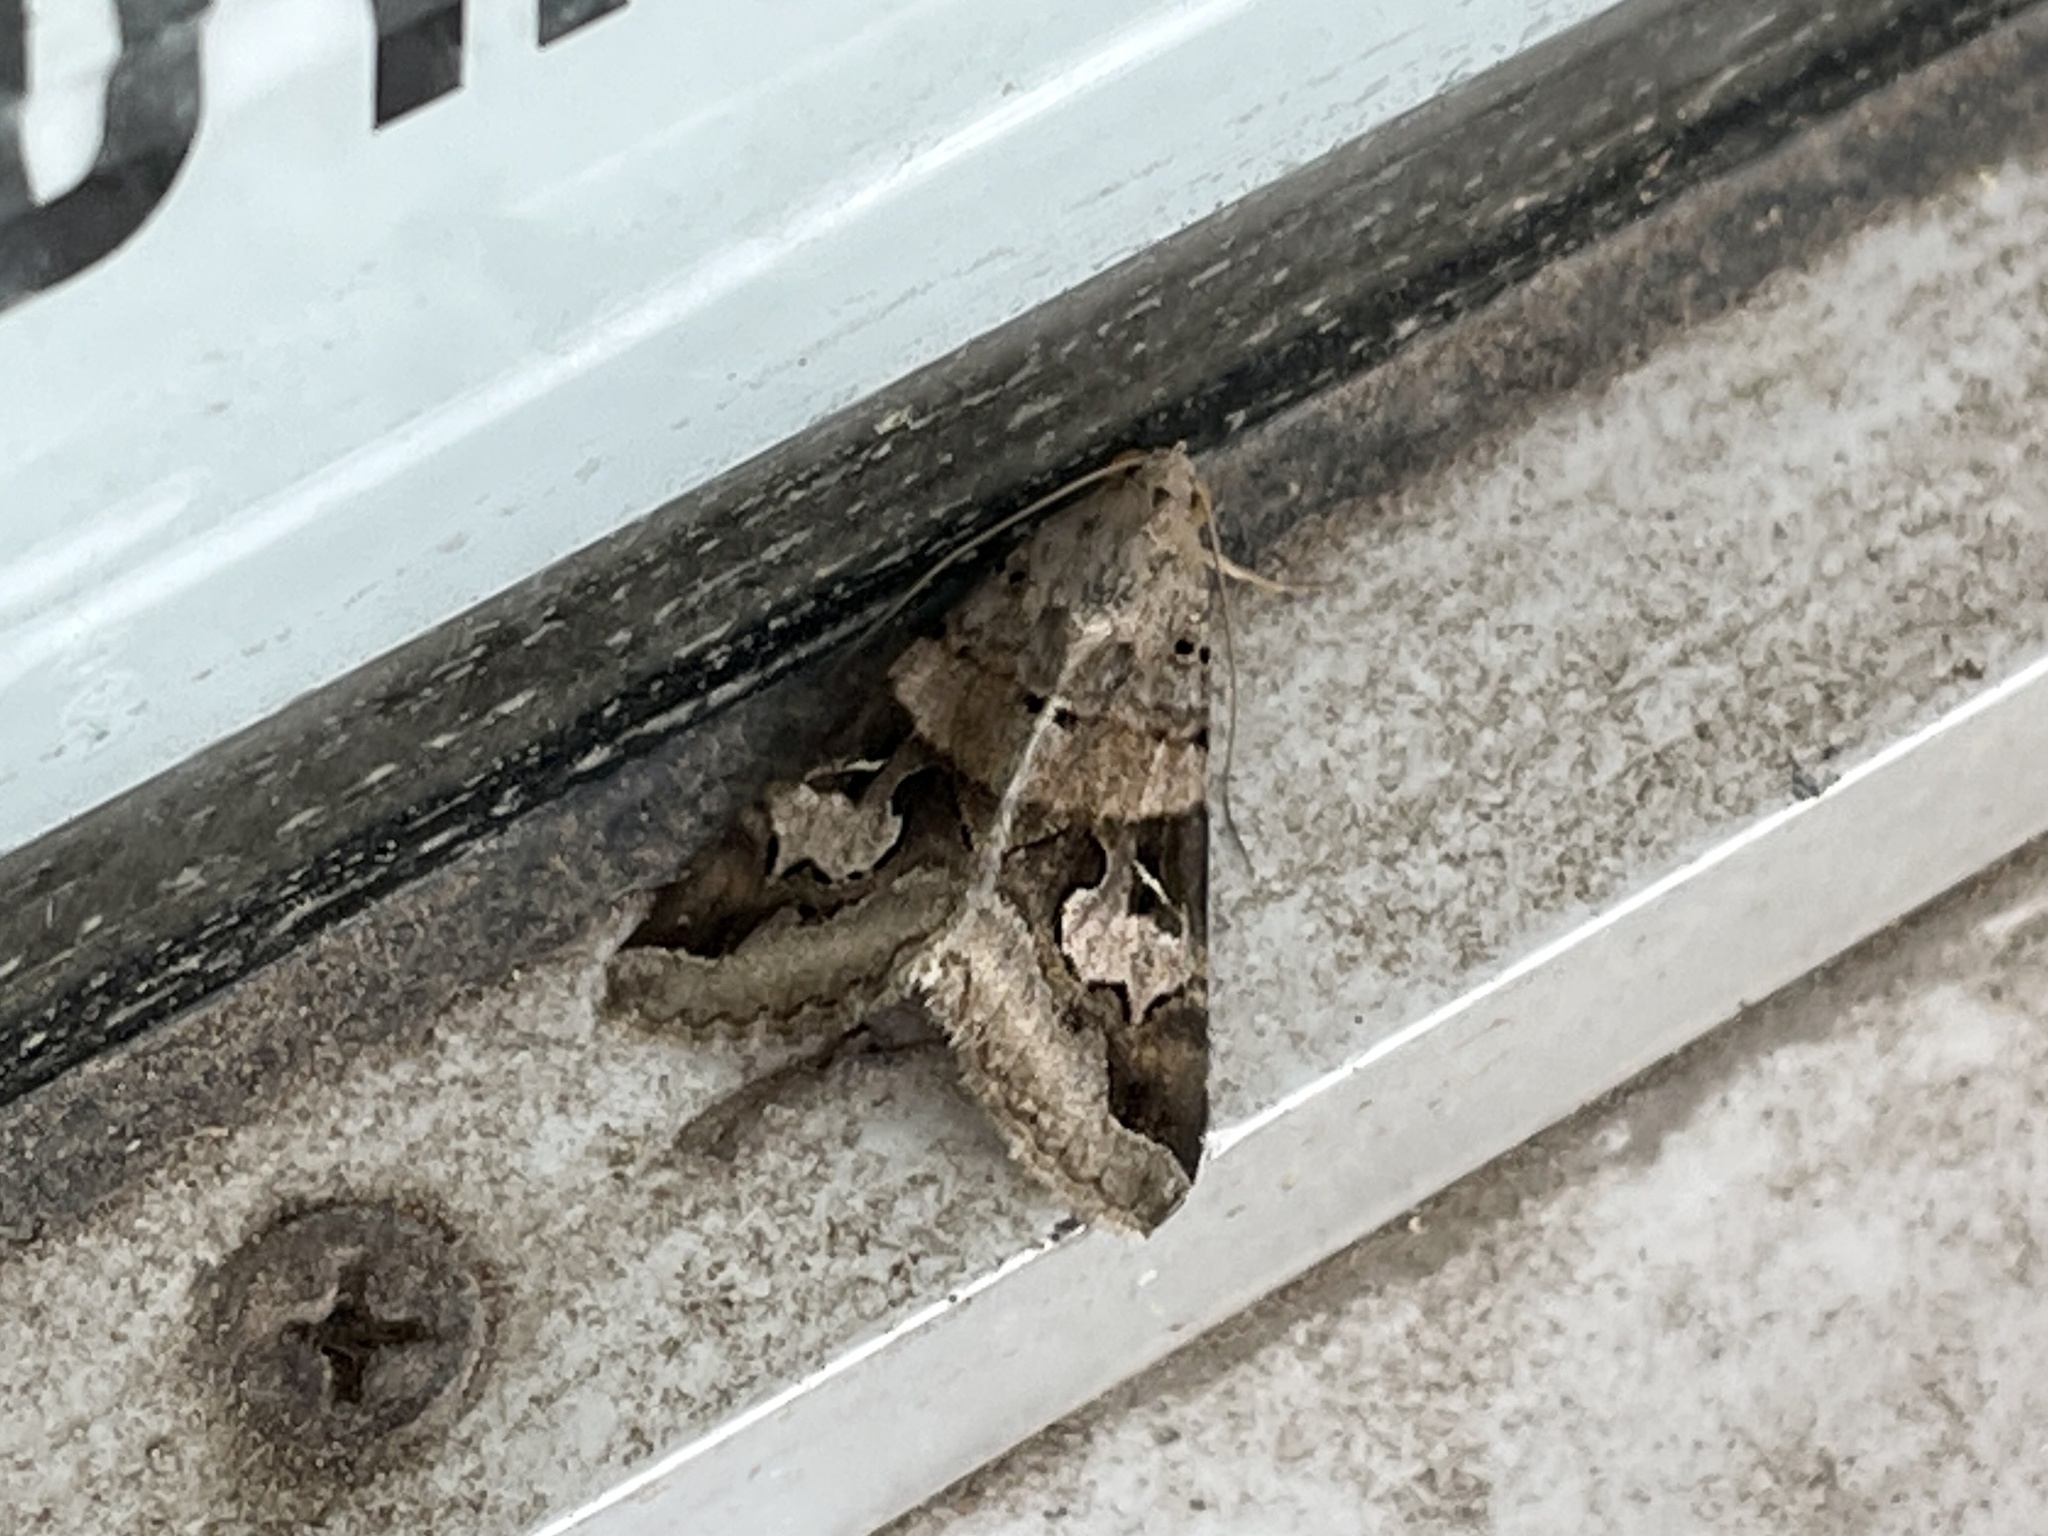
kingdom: Animalia
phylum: Arthropoda
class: Insecta
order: Lepidoptera
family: Erebidae
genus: Melipotis
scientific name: Melipotis indomita
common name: Moth
